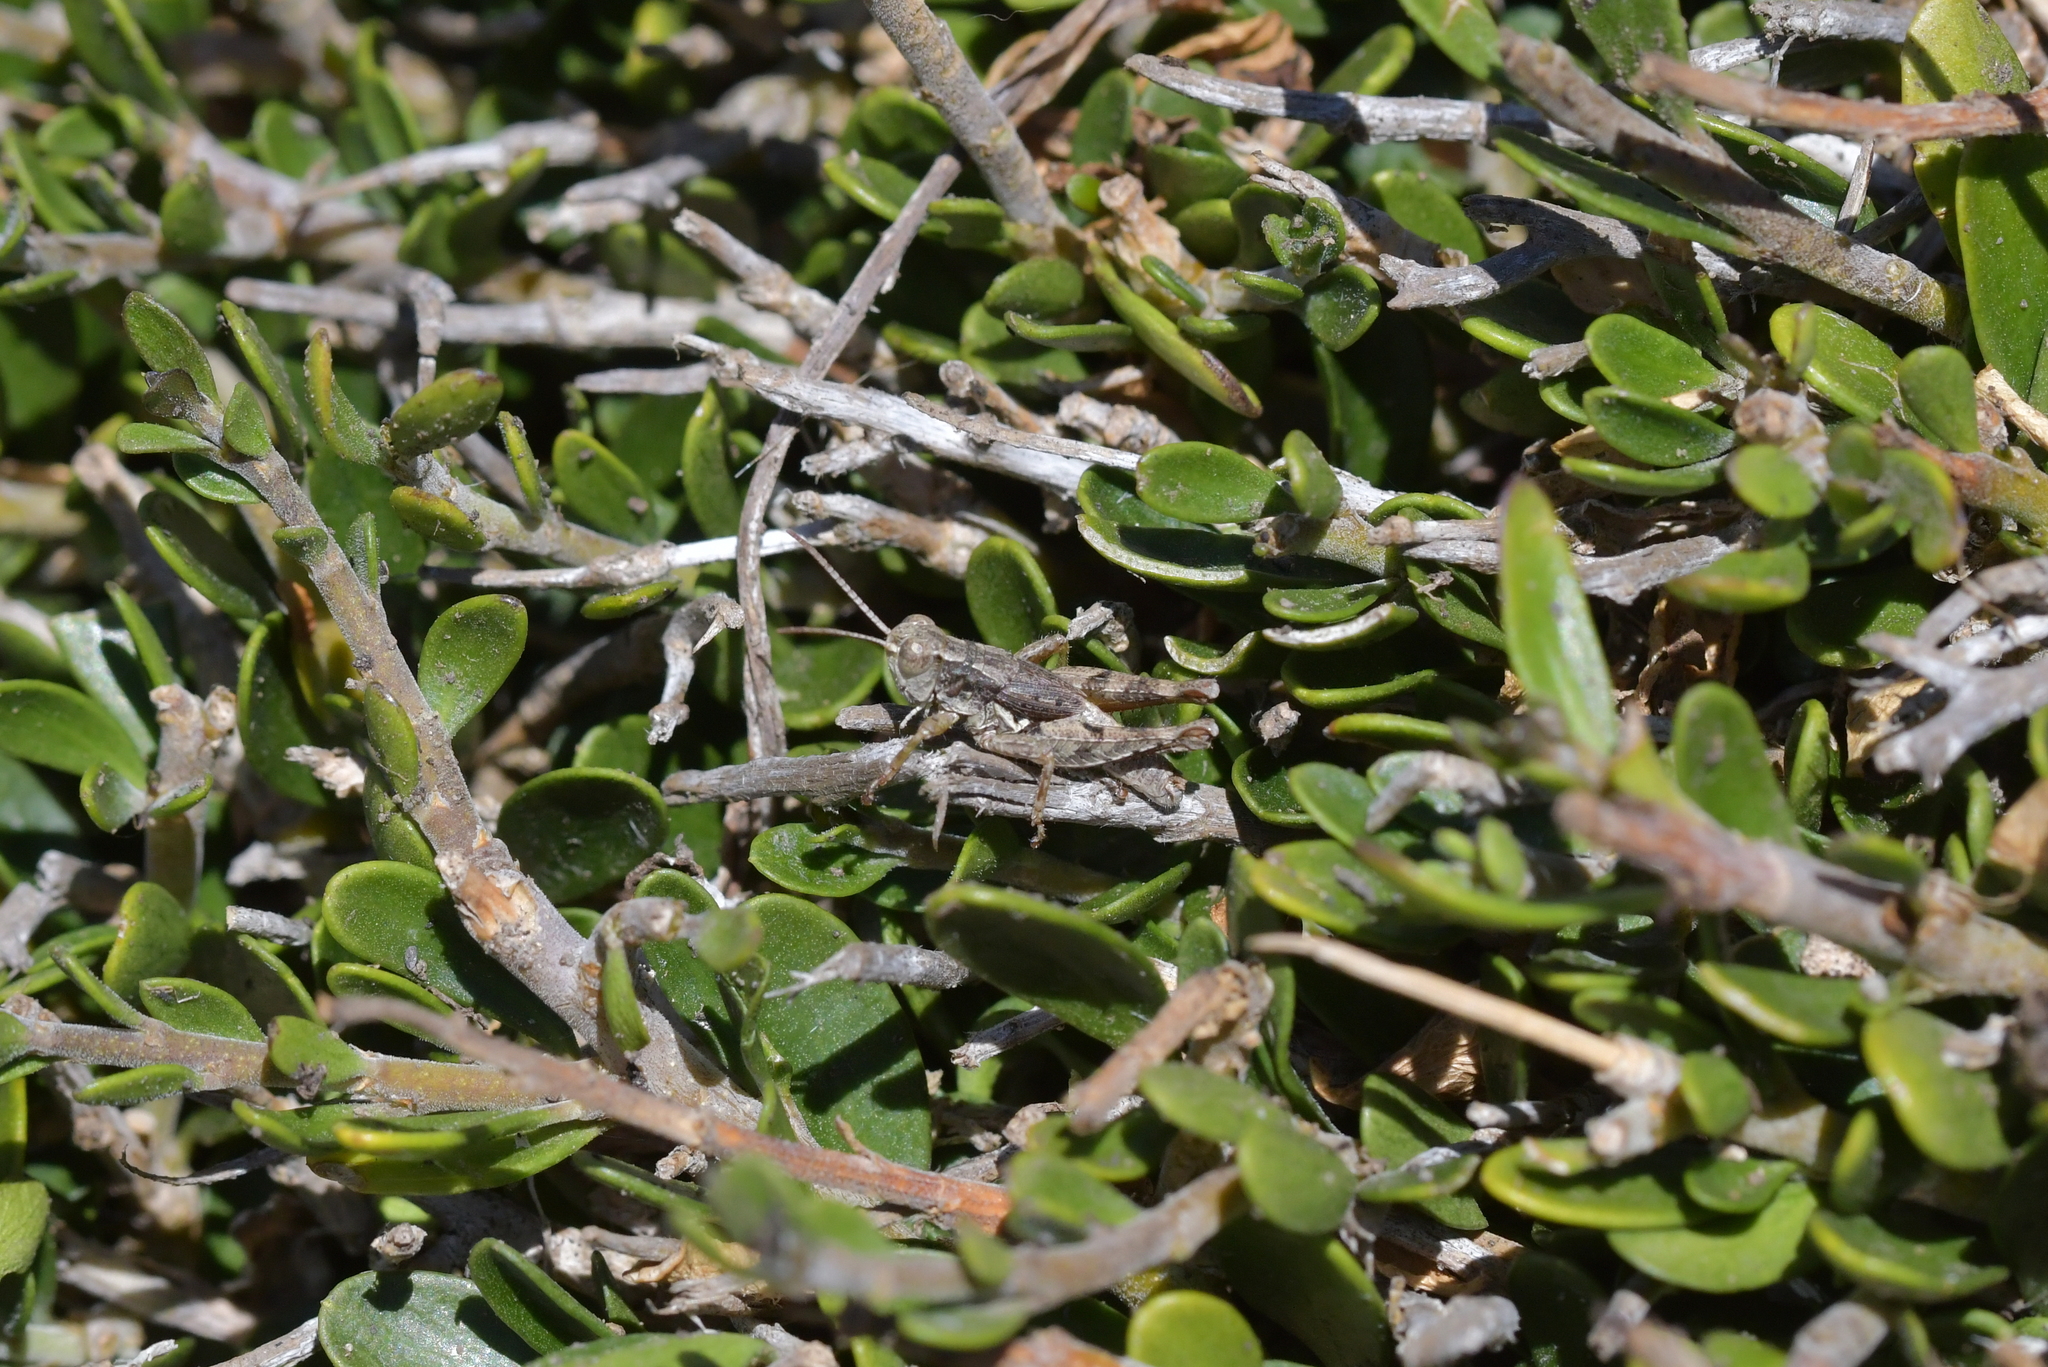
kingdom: Animalia
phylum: Arthropoda
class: Insecta
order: Orthoptera
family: Acrididae
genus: Phaulacridium
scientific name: Phaulacridium marginale
